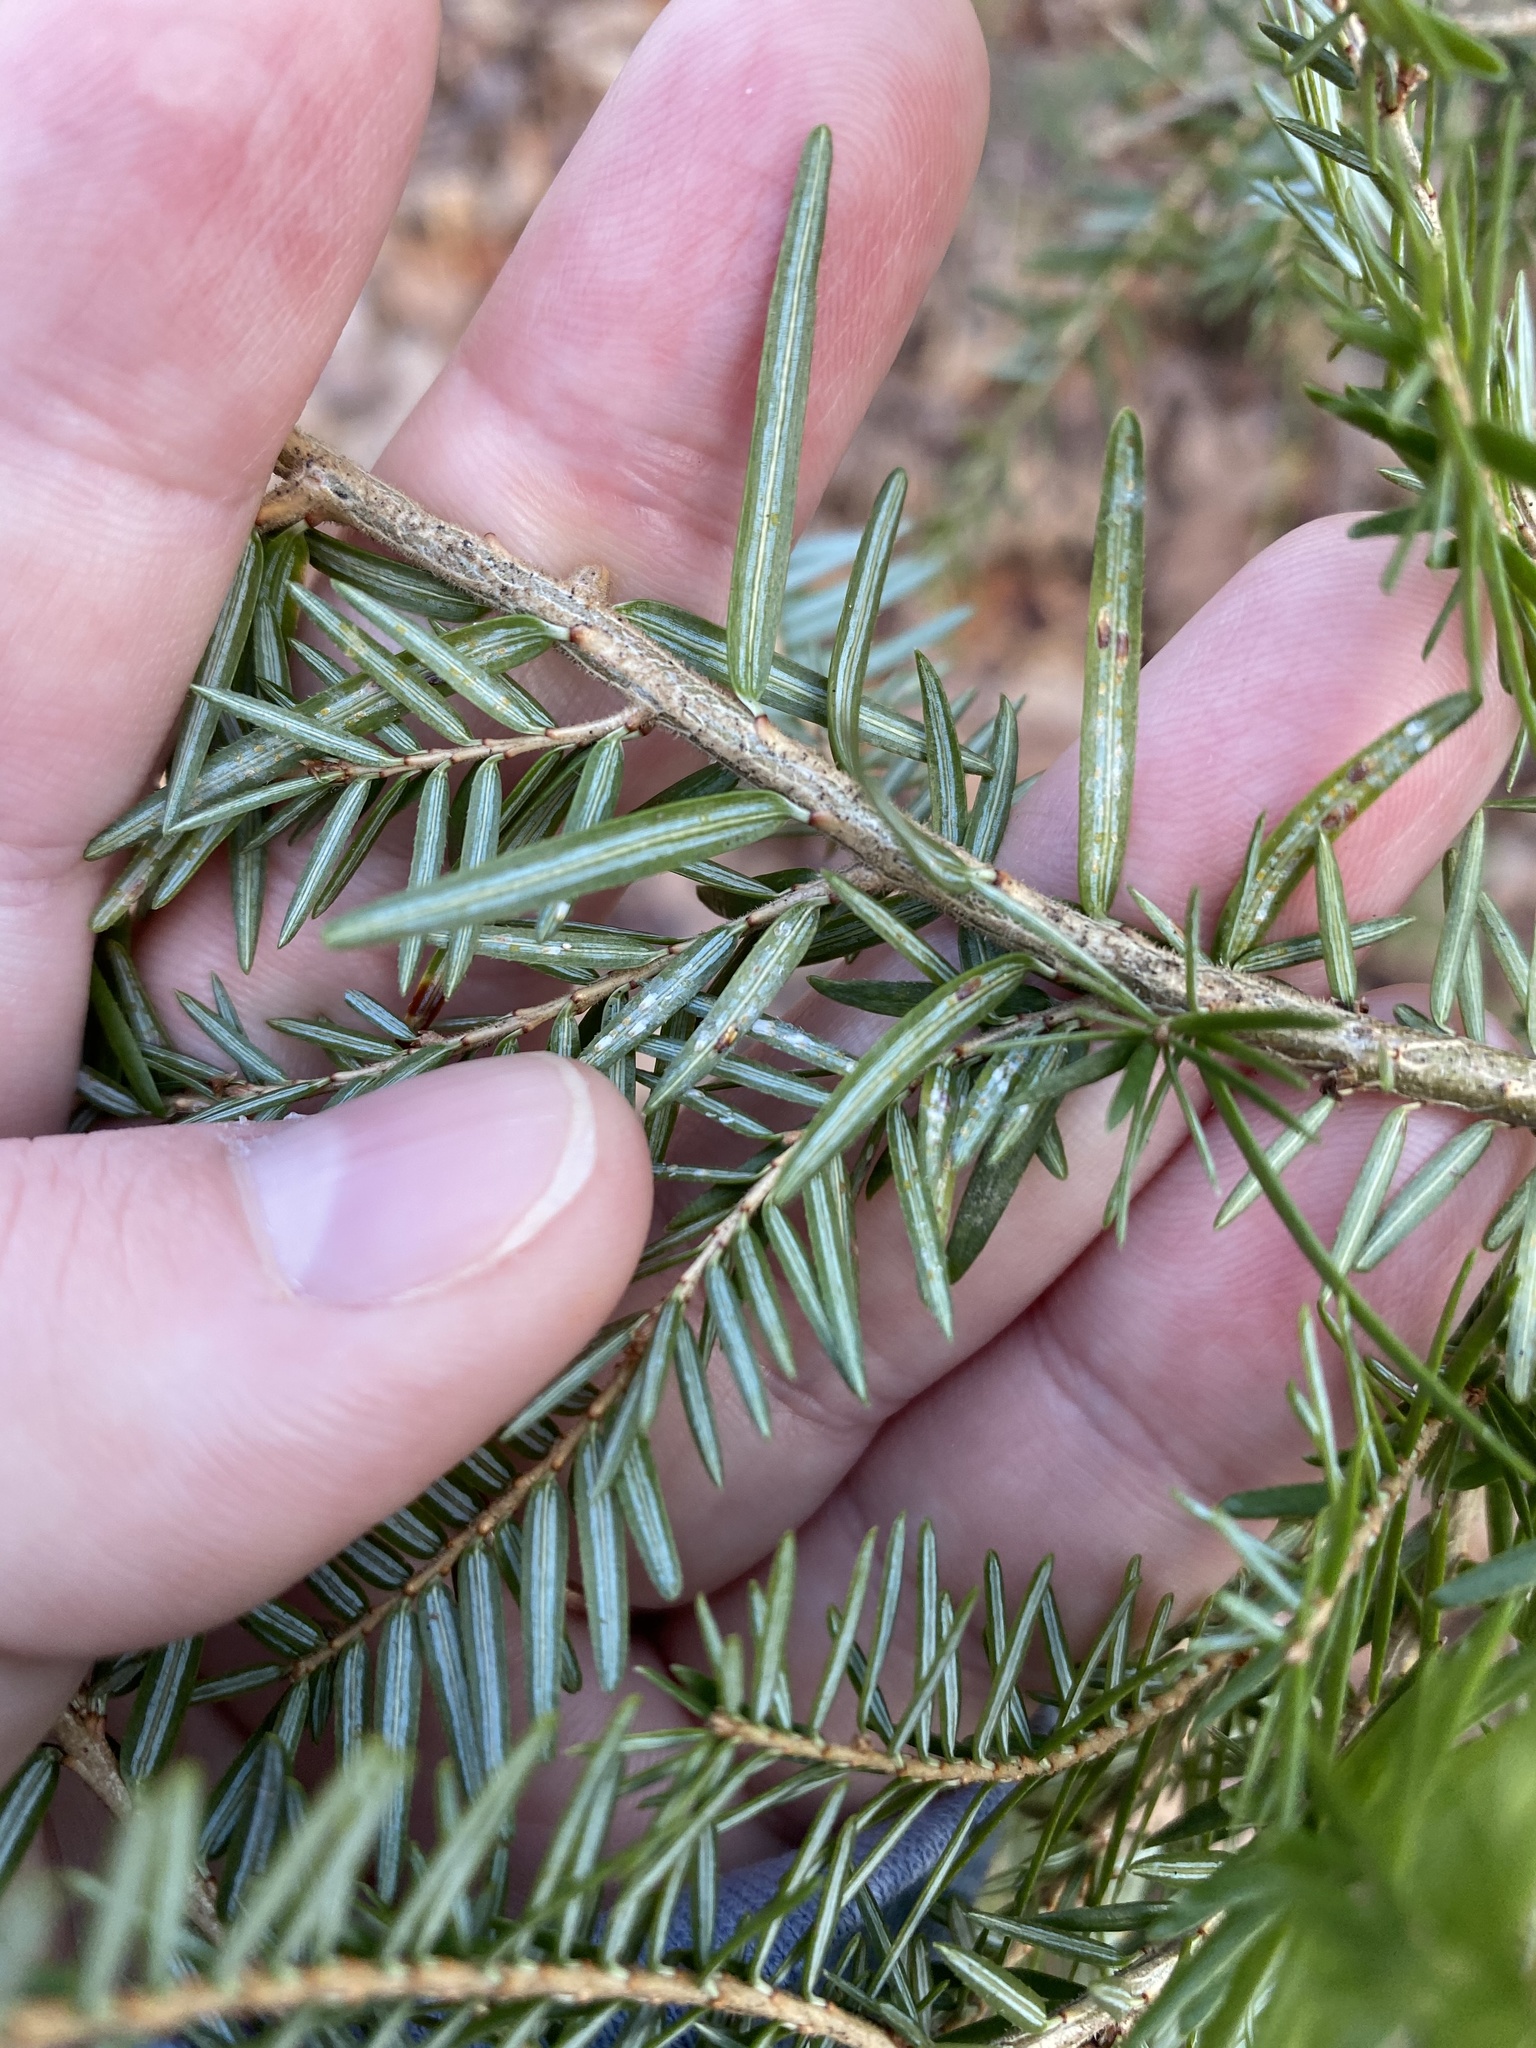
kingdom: Animalia
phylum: Arthropoda
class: Insecta
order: Hemiptera
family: Diaspididae
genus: Fiorinia
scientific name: Fiorinia externa
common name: Elongate hemlock scale
